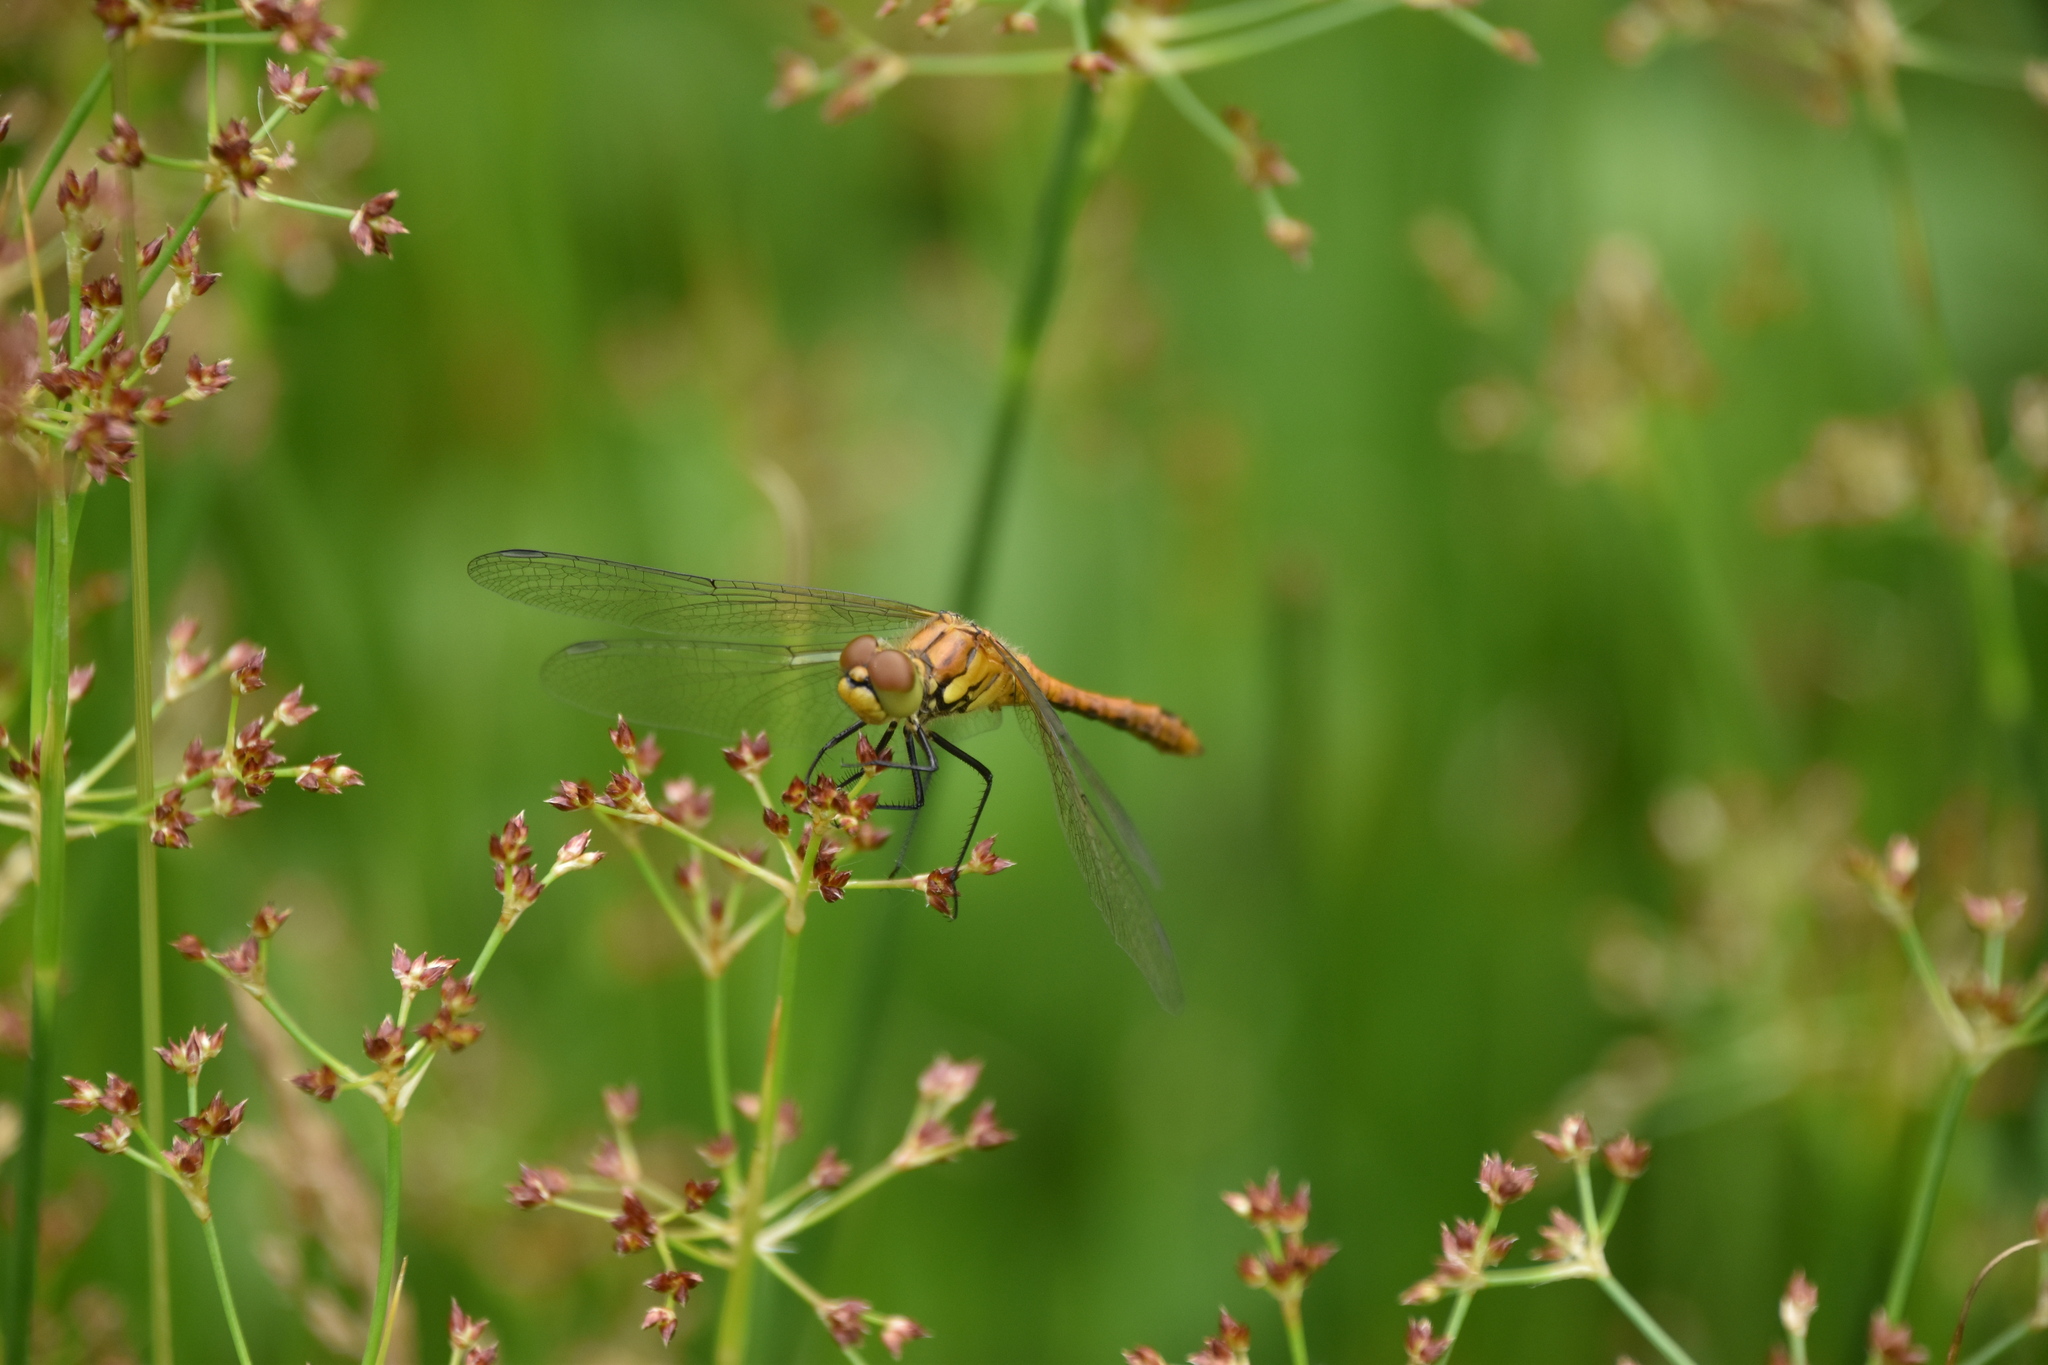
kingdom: Animalia
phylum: Arthropoda
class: Insecta
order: Odonata
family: Libellulidae
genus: Sympetrum
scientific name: Sympetrum sanguineum
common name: Ruddy darter
